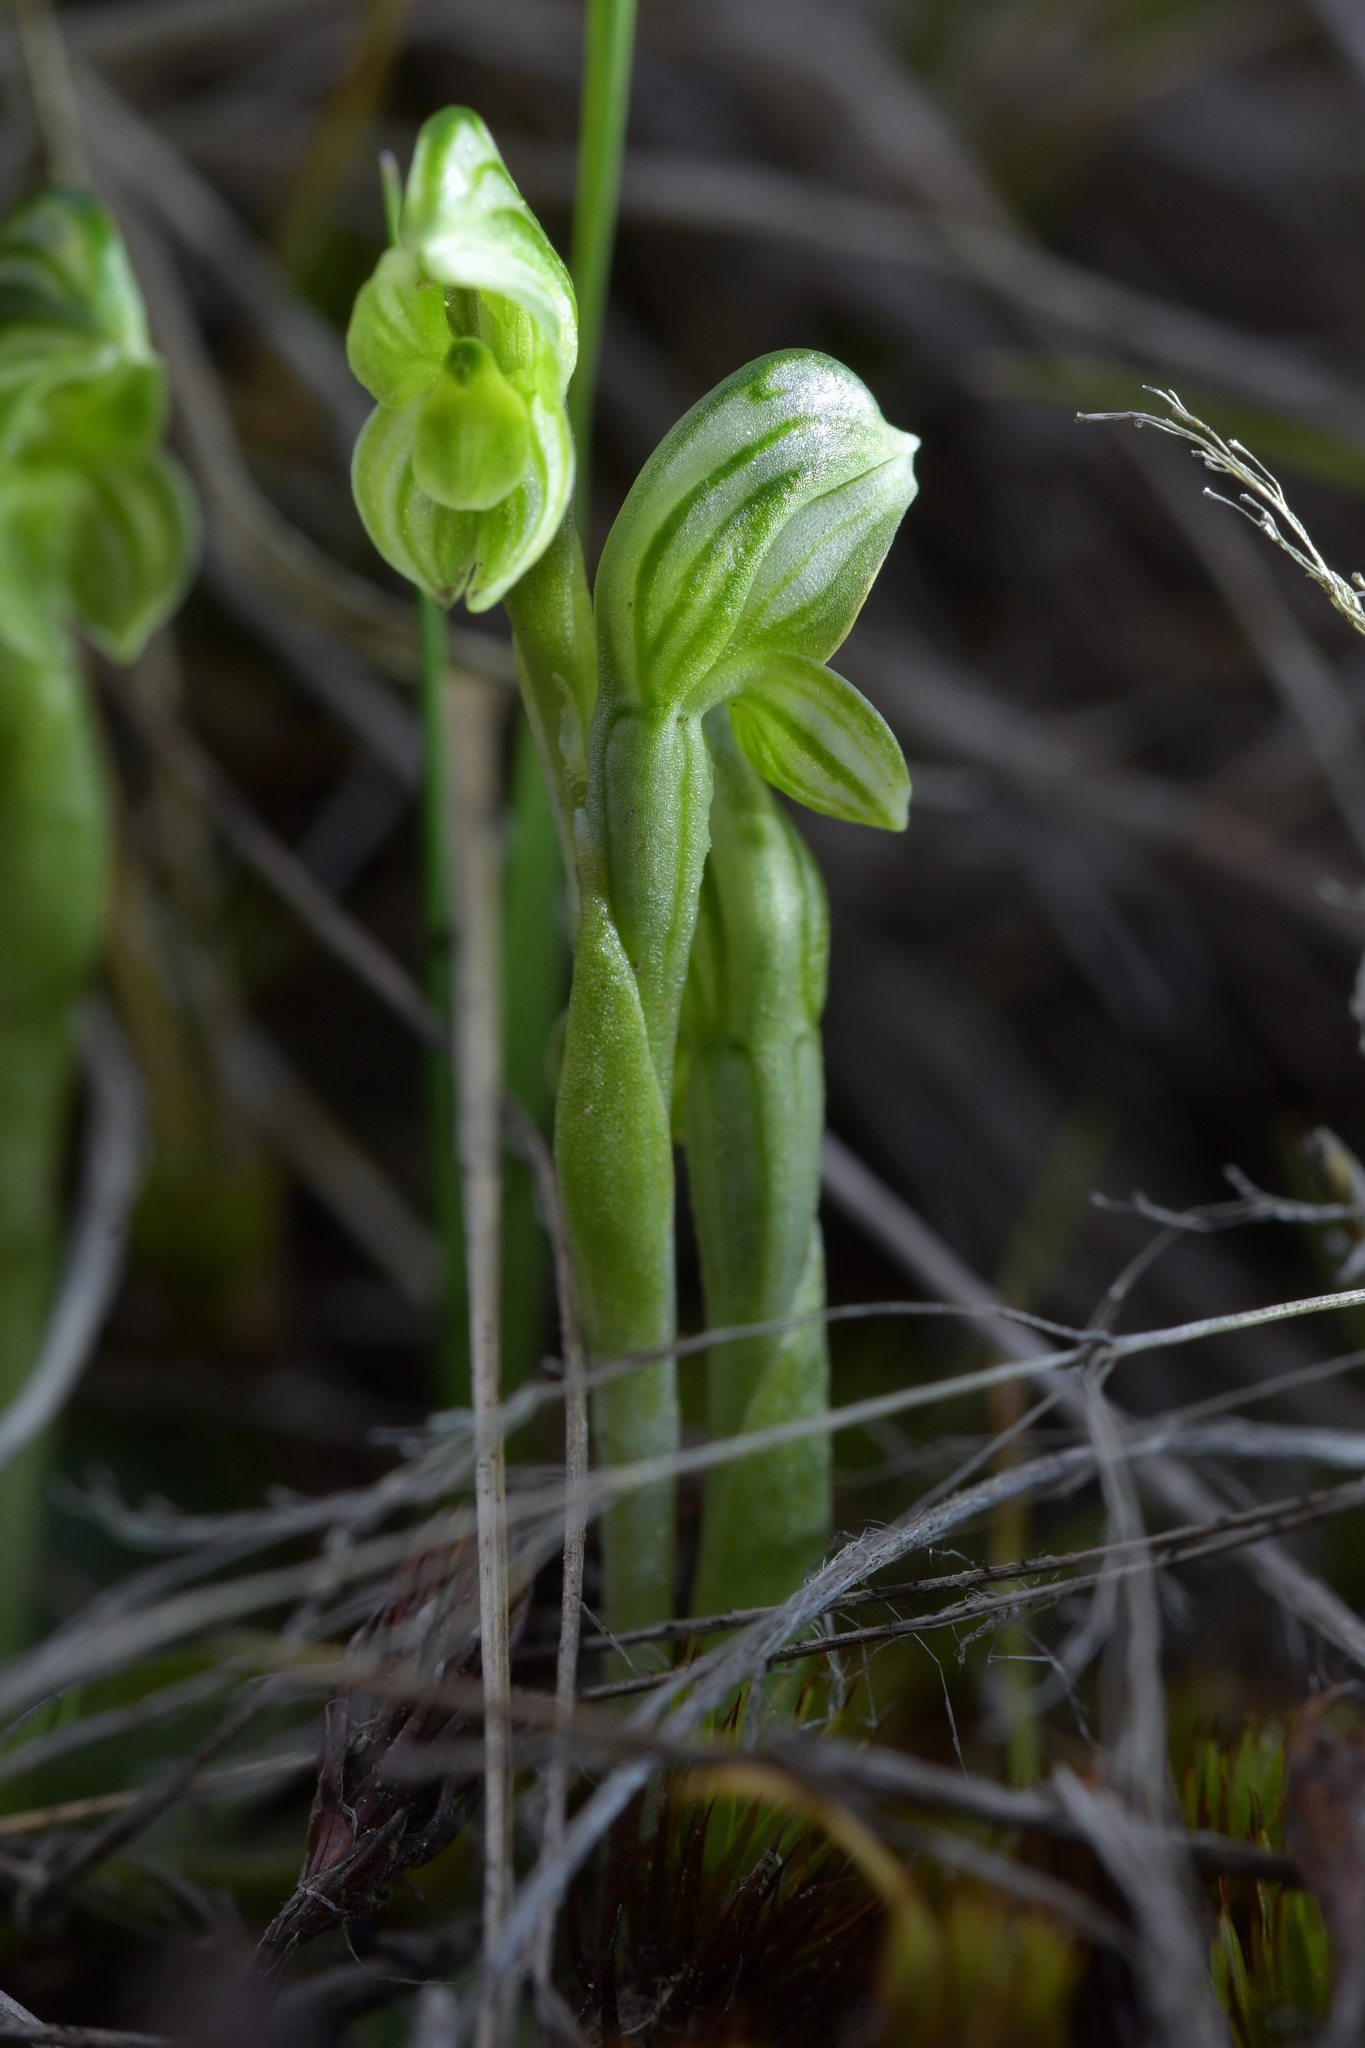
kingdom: Plantae
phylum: Tracheophyta
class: Liliopsida
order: Asparagales
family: Orchidaceae
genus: Pterostylis
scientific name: Pterostylis tanypoda
